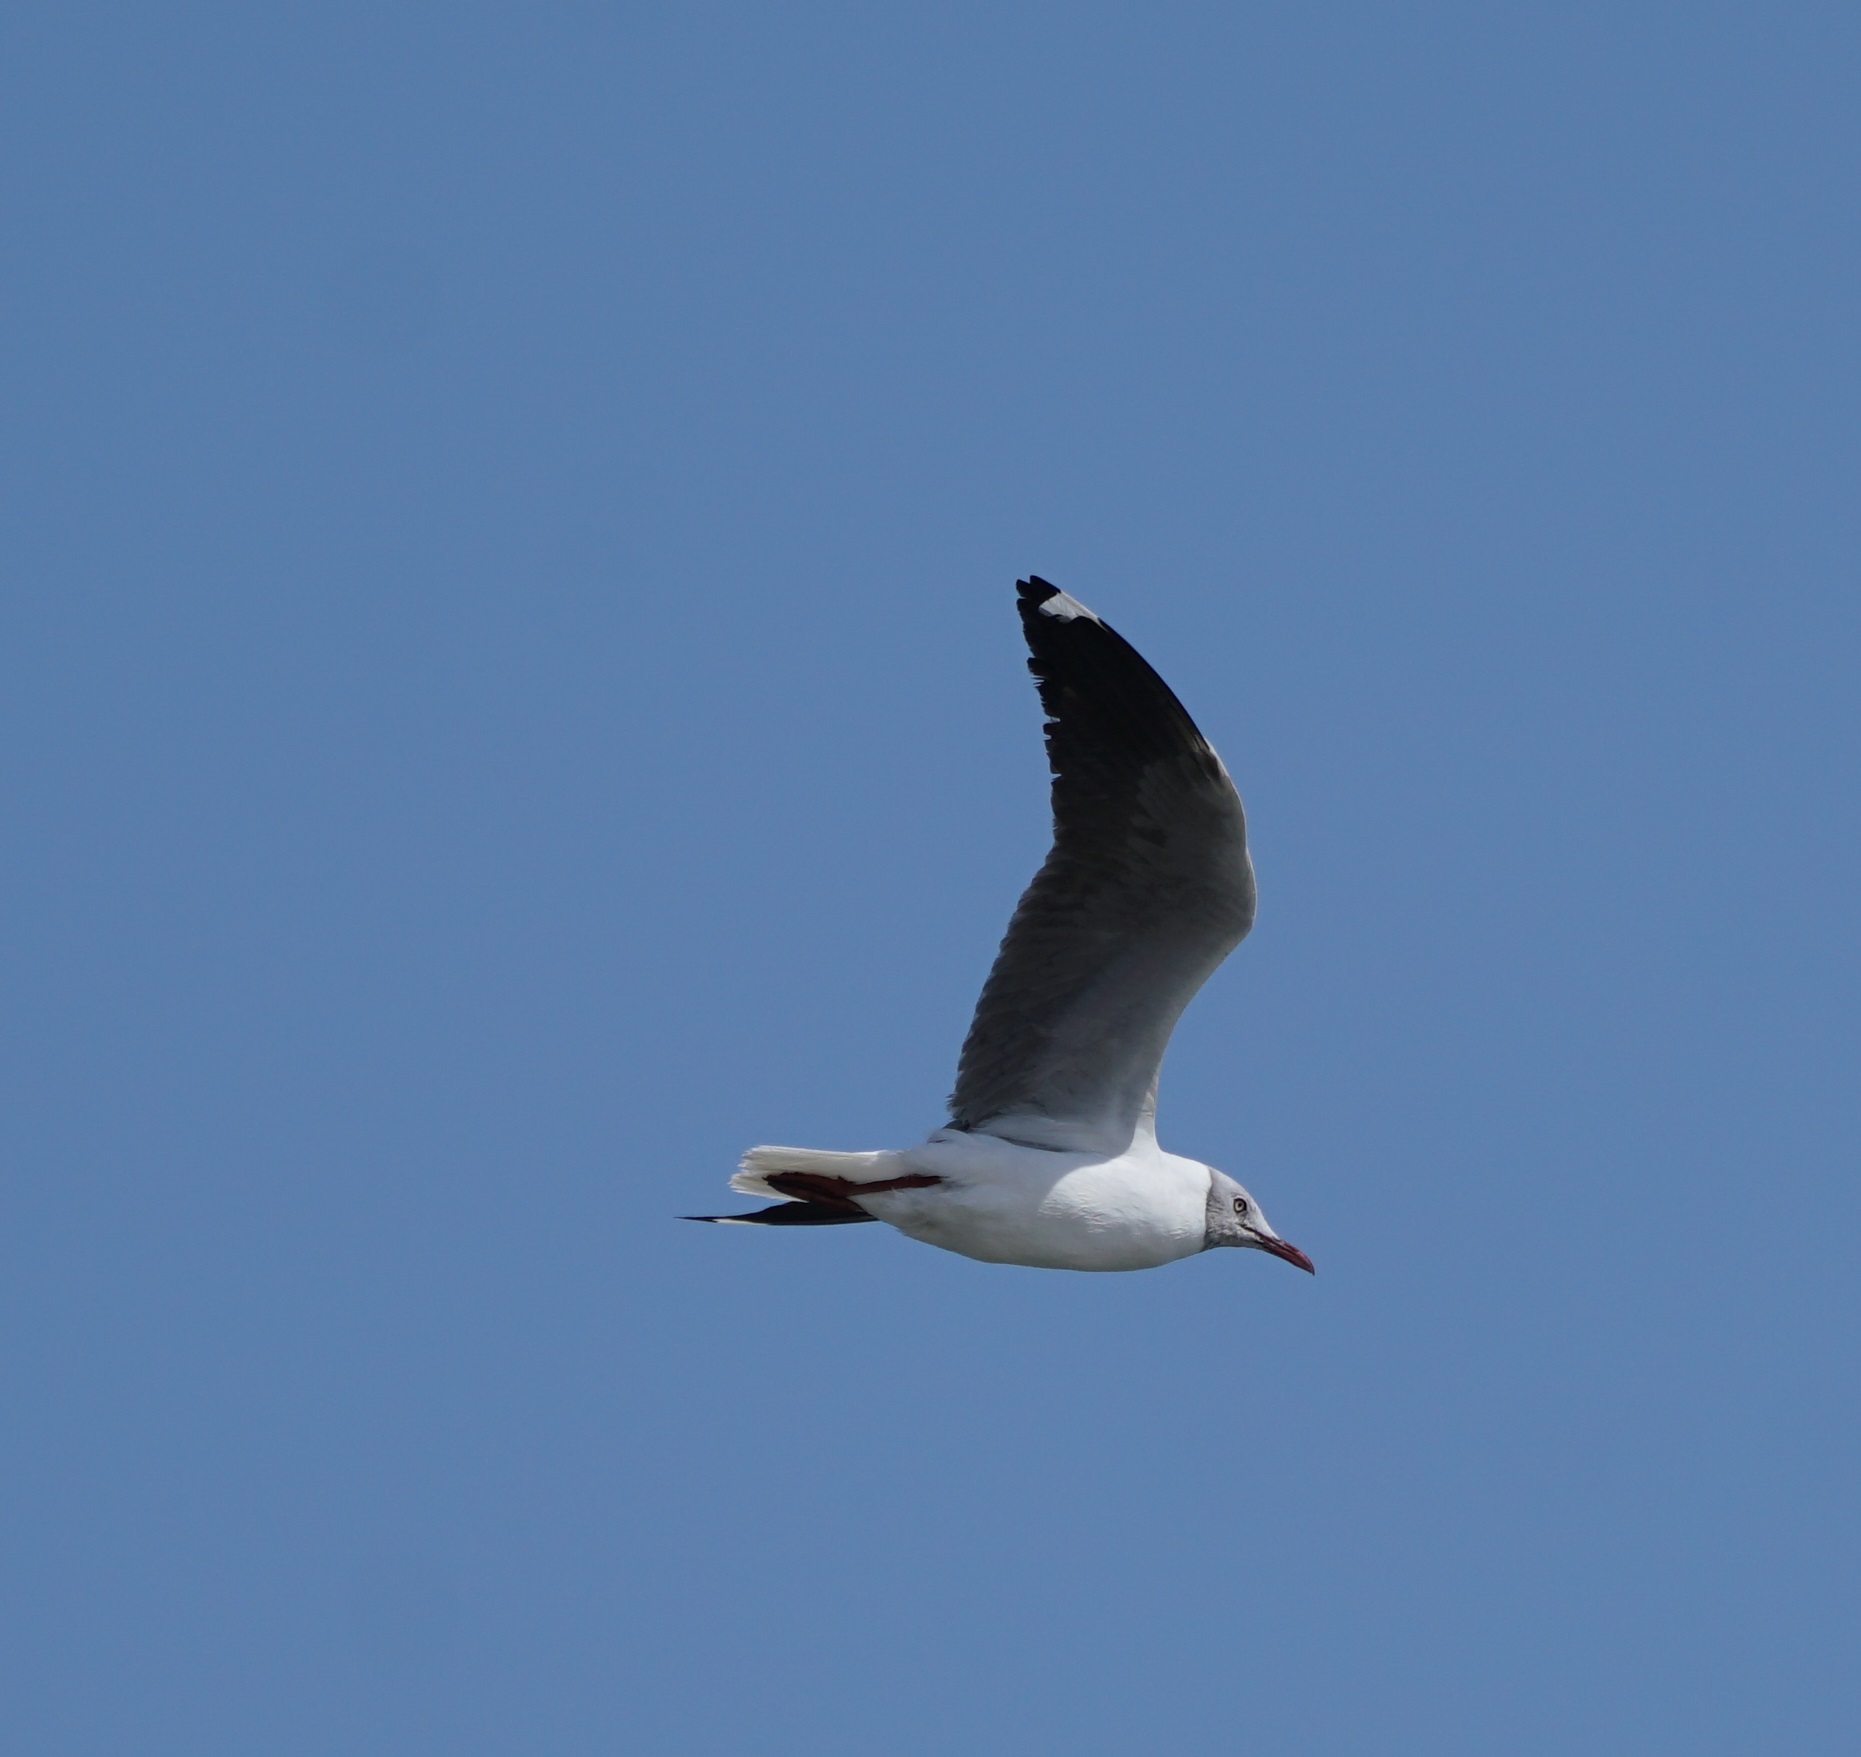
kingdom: Animalia
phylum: Chordata
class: Aves
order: Charadriiformes
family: Laridae
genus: Chroicocephalus
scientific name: Chroicocephalus cirrocephalus
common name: Grey-headed gull
